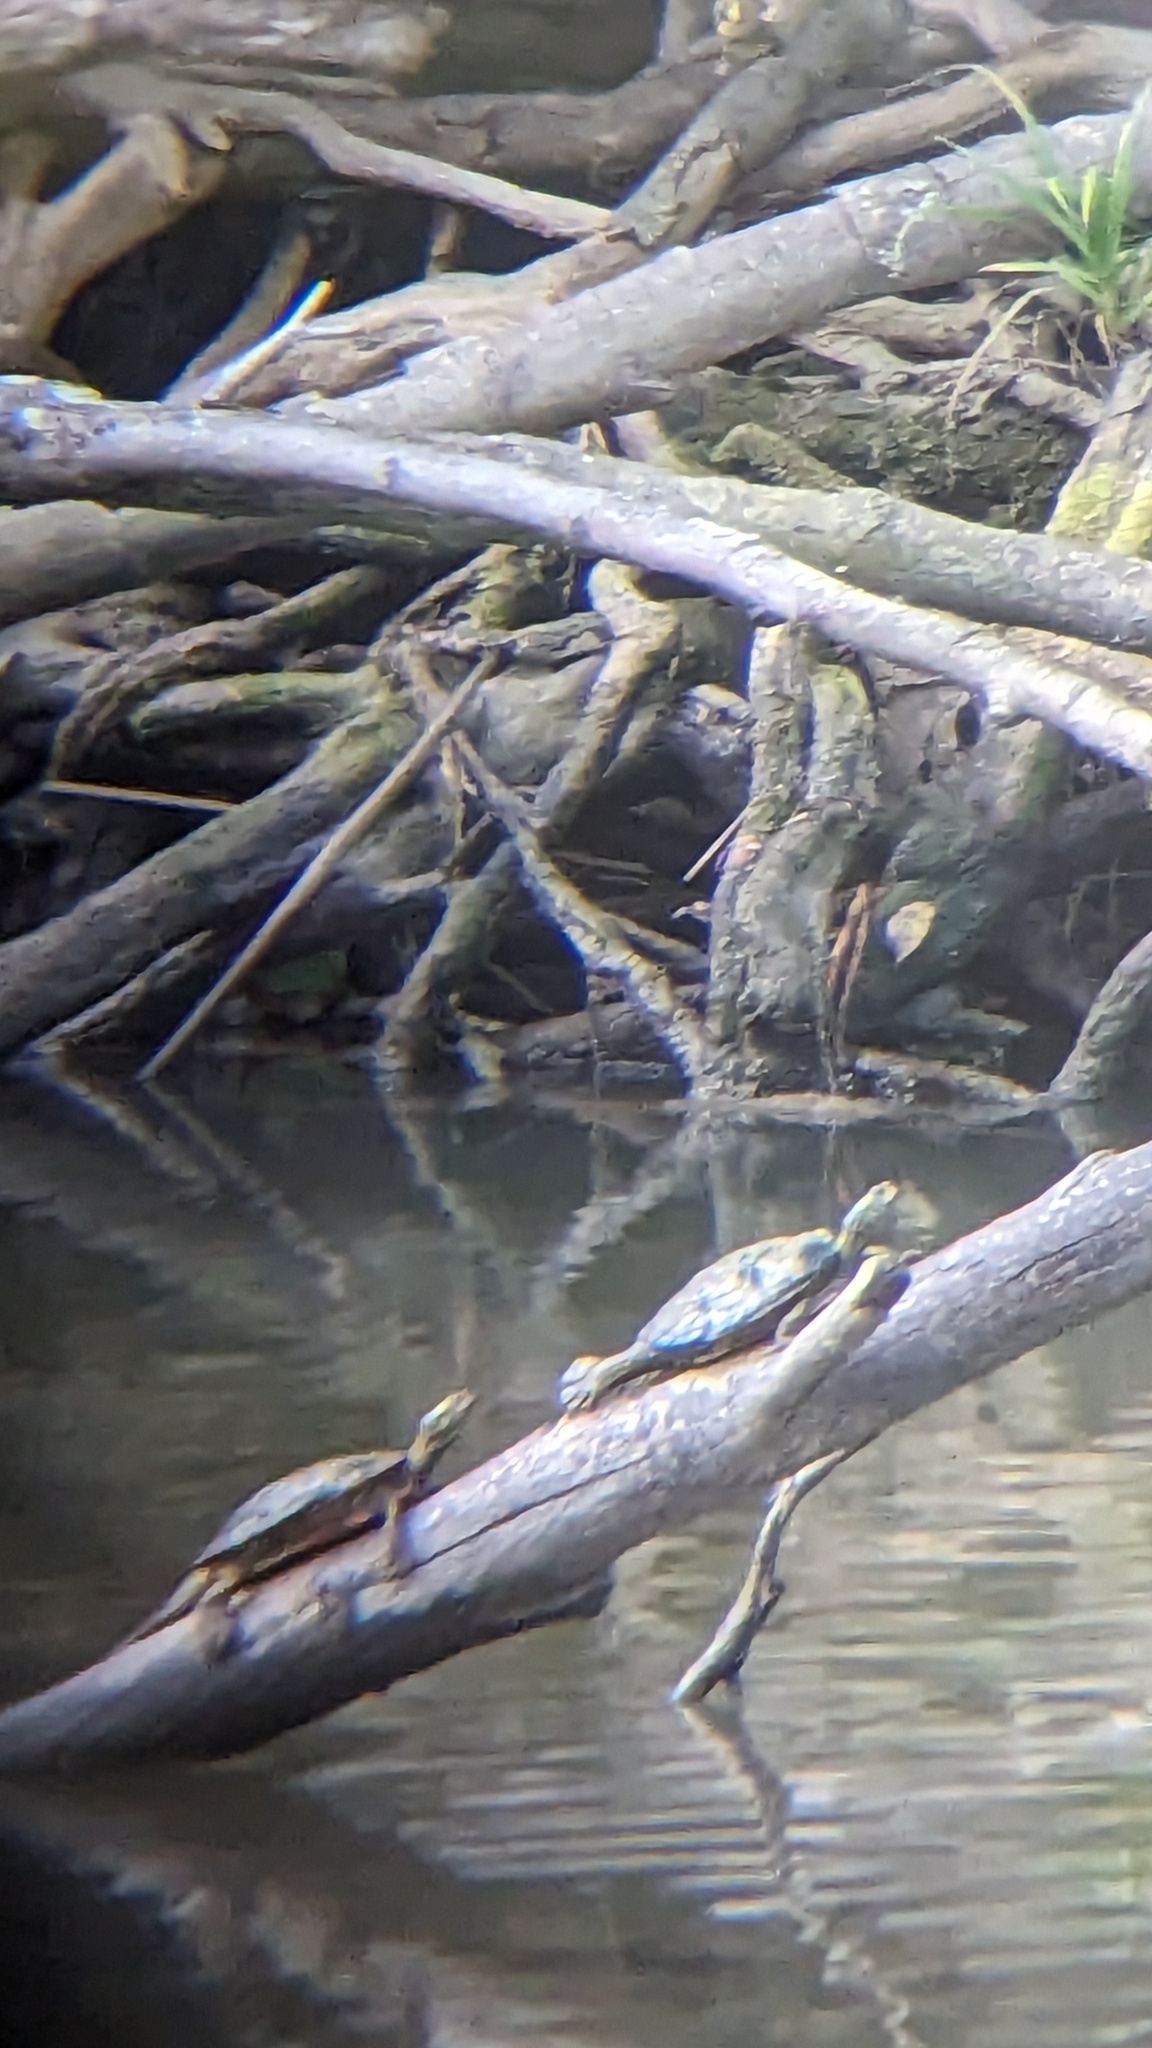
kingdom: Animalia
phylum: Chordata
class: Testudines
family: Emydidae
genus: Graptemys
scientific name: Graptemys geographica
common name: Common map turtle
